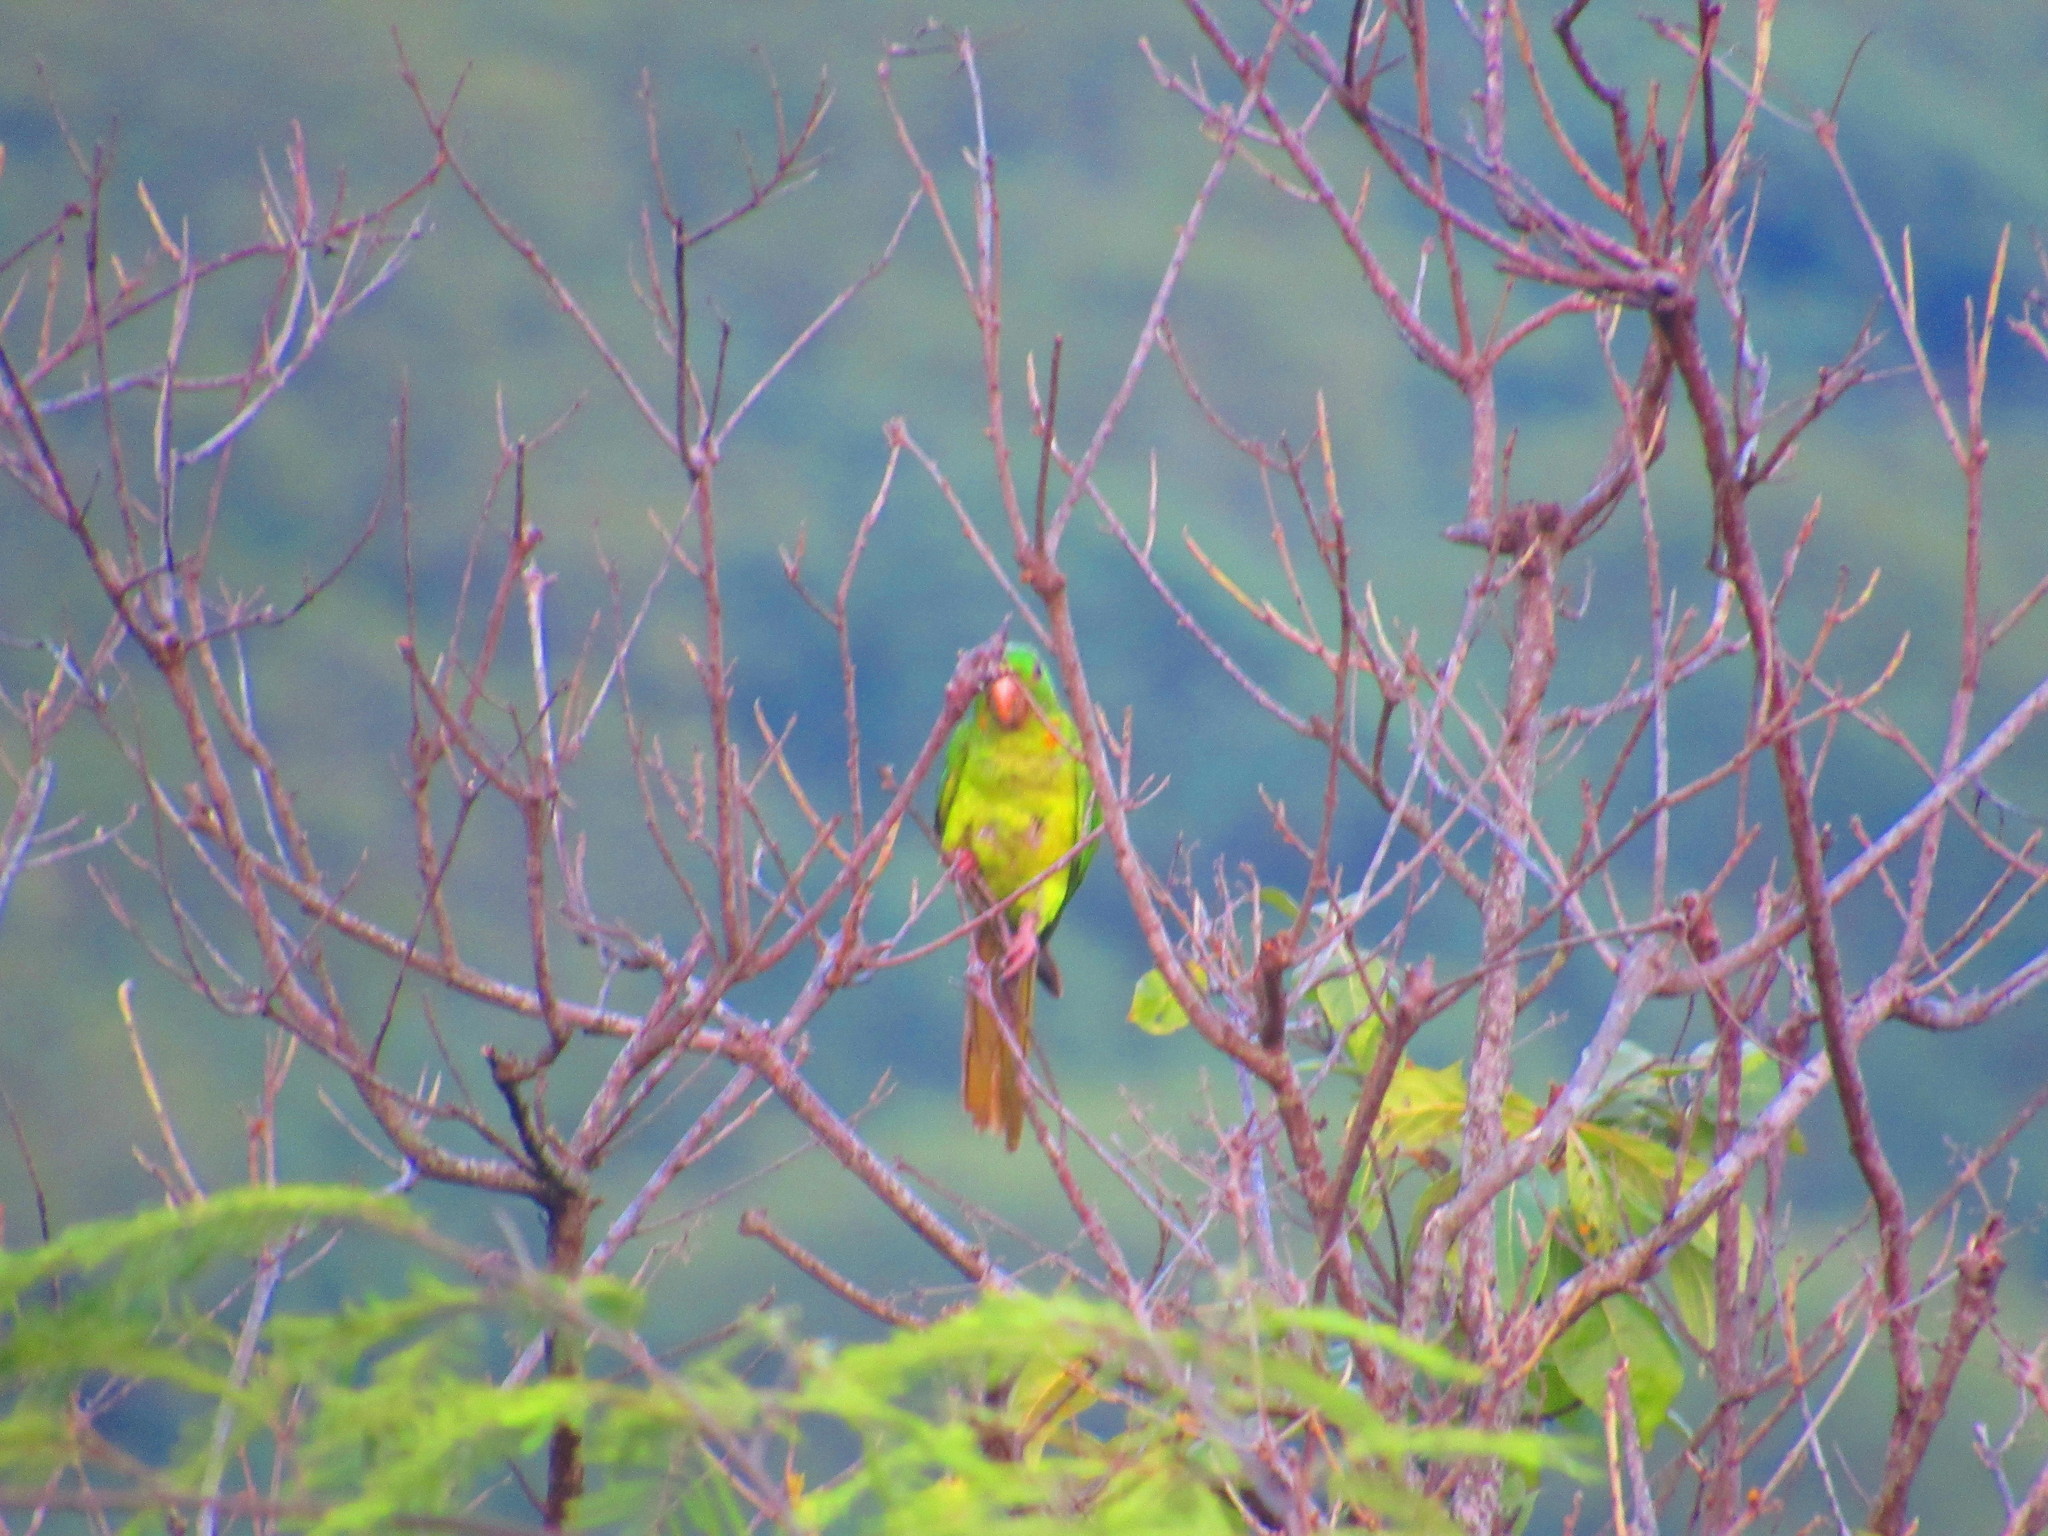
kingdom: Animalia
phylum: Chordata
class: Aves
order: Psittaciformes
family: Psittacidae
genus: Aratinga
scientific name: Aratinga holochlora
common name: Green parakeet
